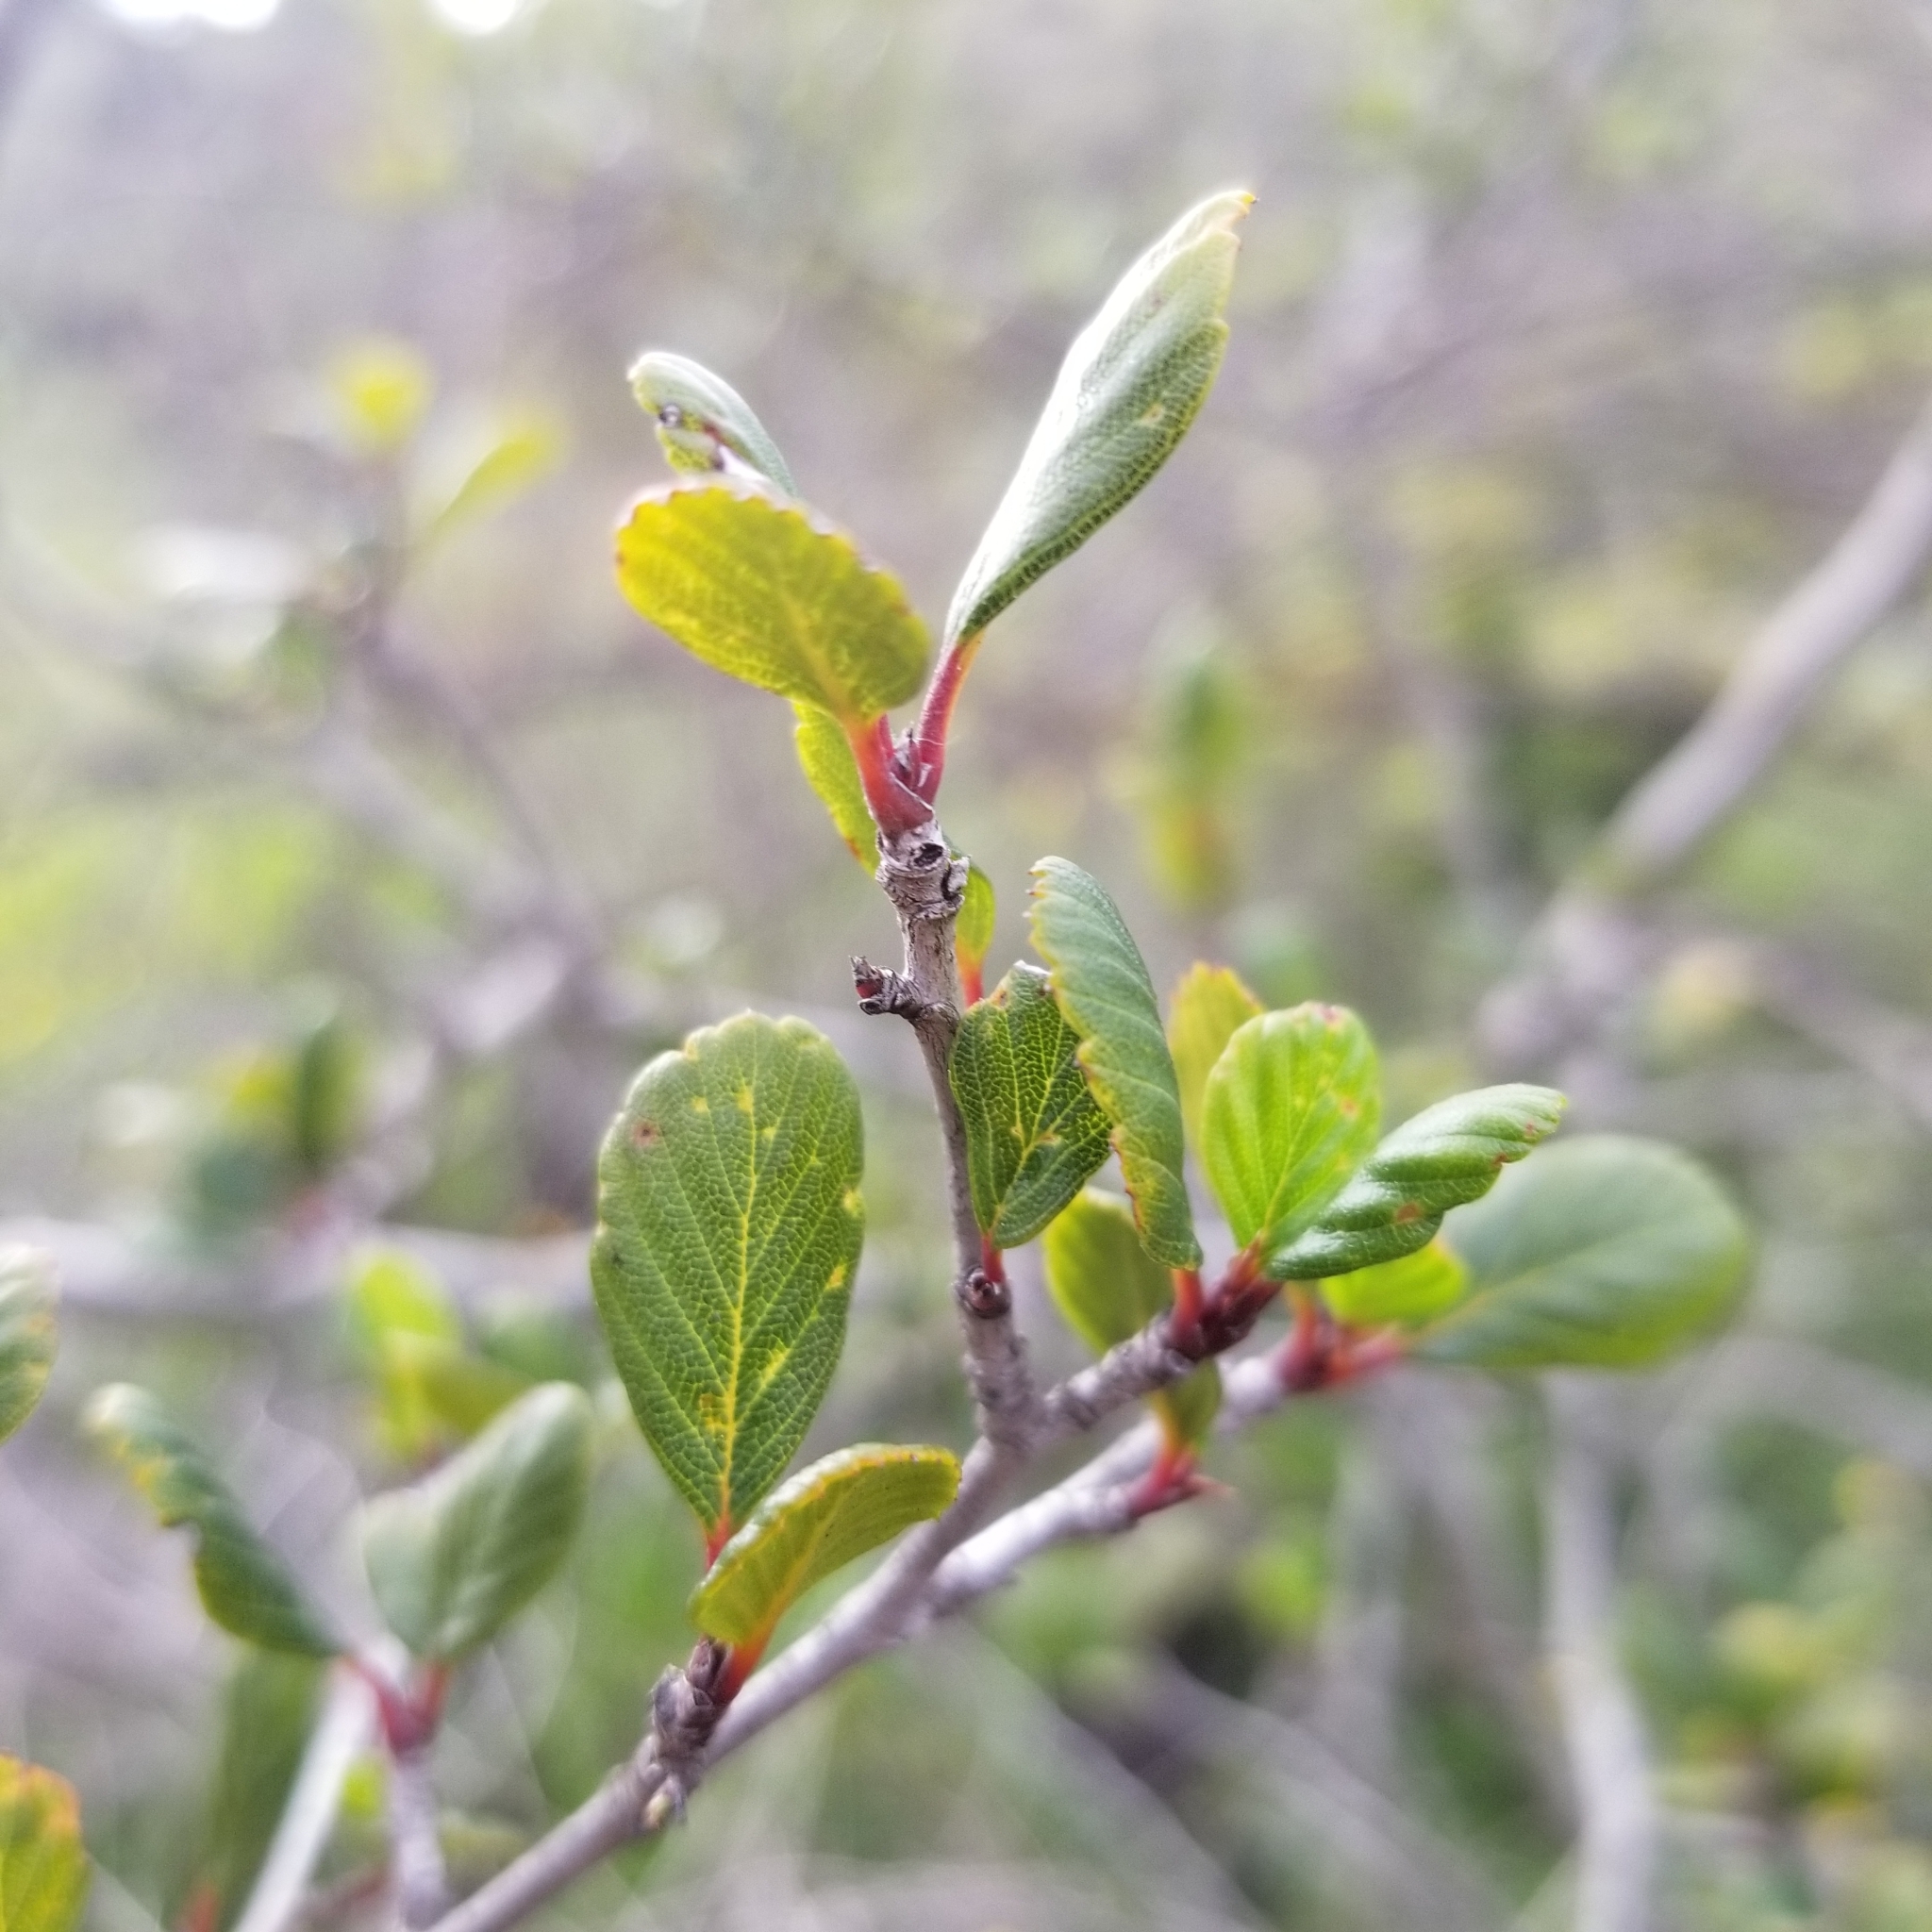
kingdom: Plantae
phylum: Tracheophyta
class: Magnoliopsida
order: Rosales
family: Rosaceae
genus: Cercocarpus
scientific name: Cercocarpus montanus
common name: Alder-leaf cercocarpus
